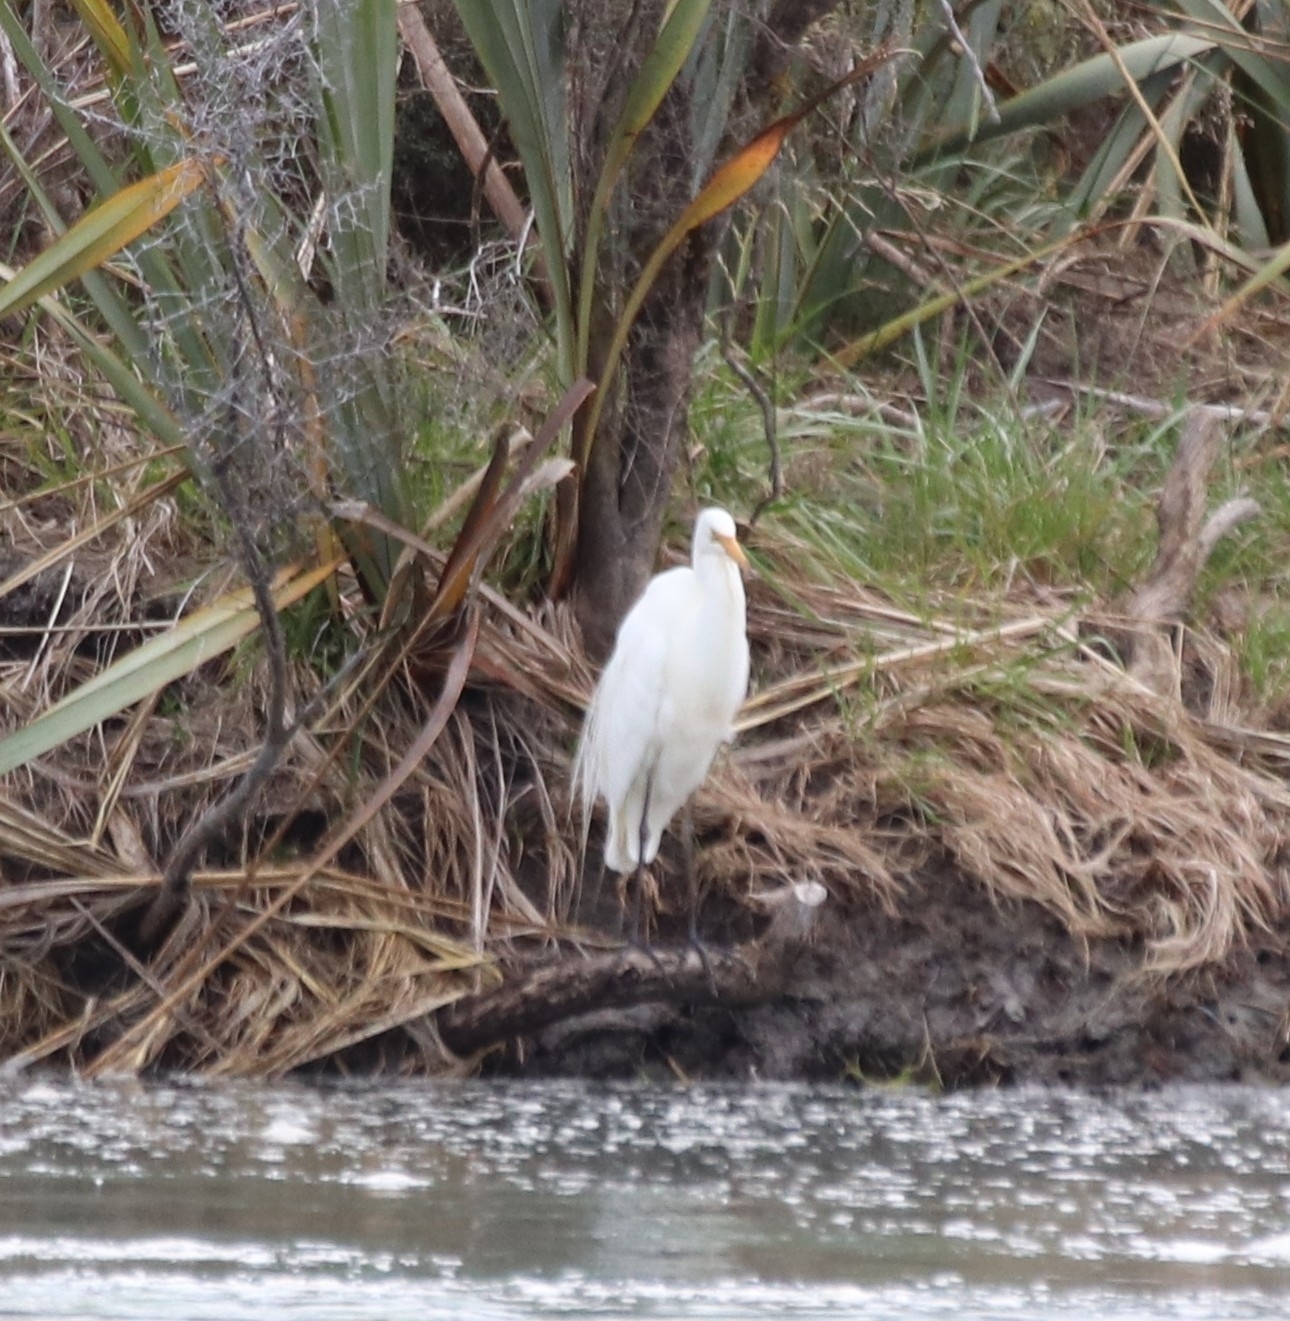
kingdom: Animalia
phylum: Chordata
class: Aves
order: Pelecaniformes
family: Ardeidae
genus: Ardea
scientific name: Ardea modesta
